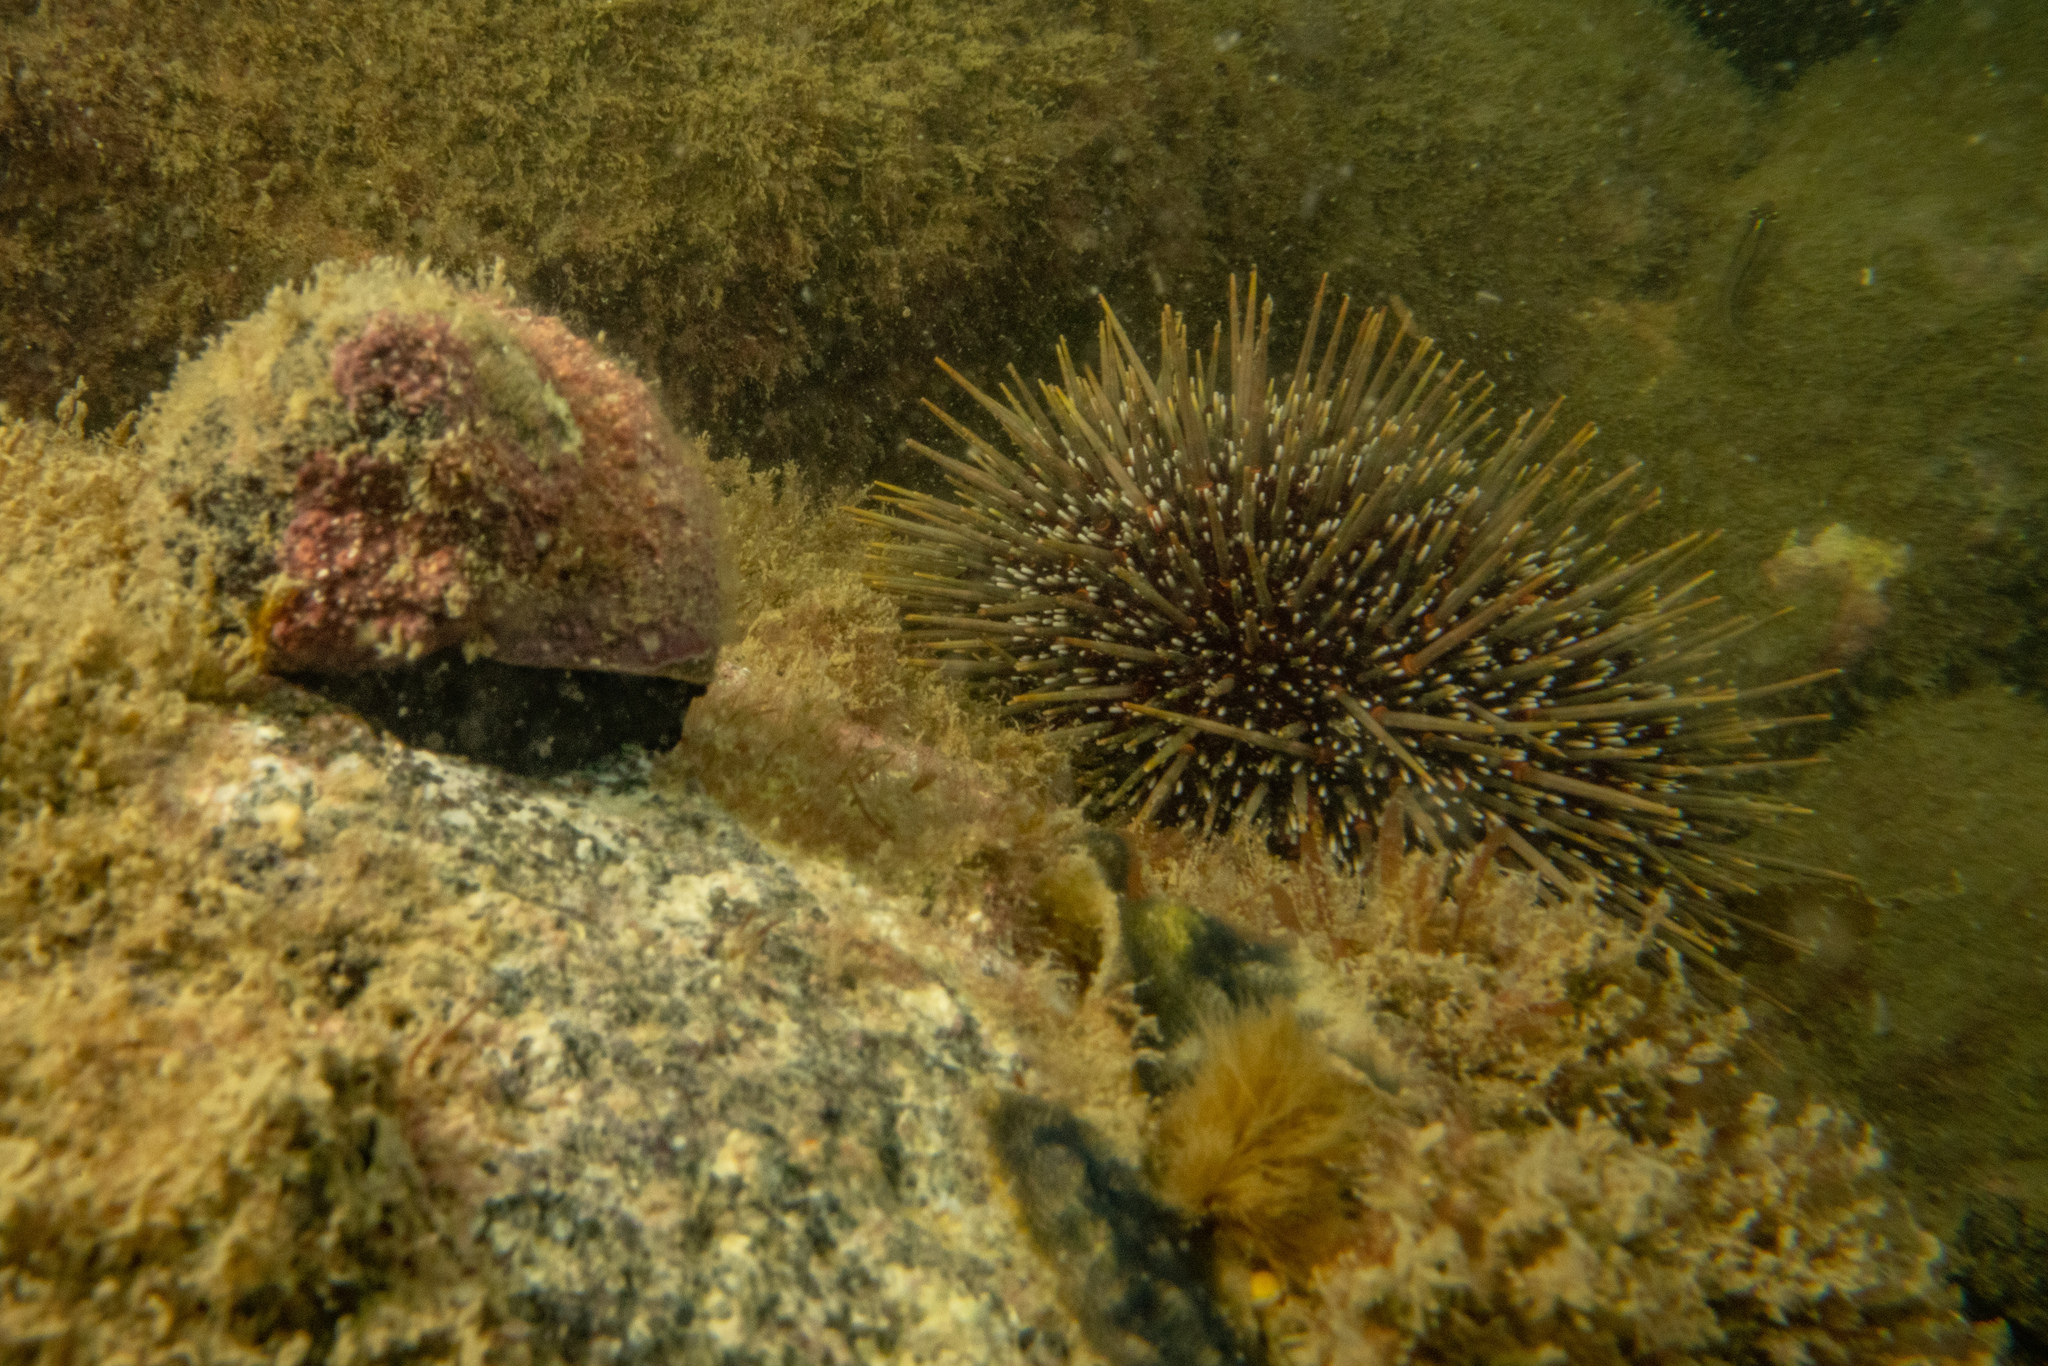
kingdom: Animalia
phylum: Echinodermata
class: Echinoidea
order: Camarodonta
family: Echinometridae
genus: Evechinus
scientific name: Evechinus chloroticus
